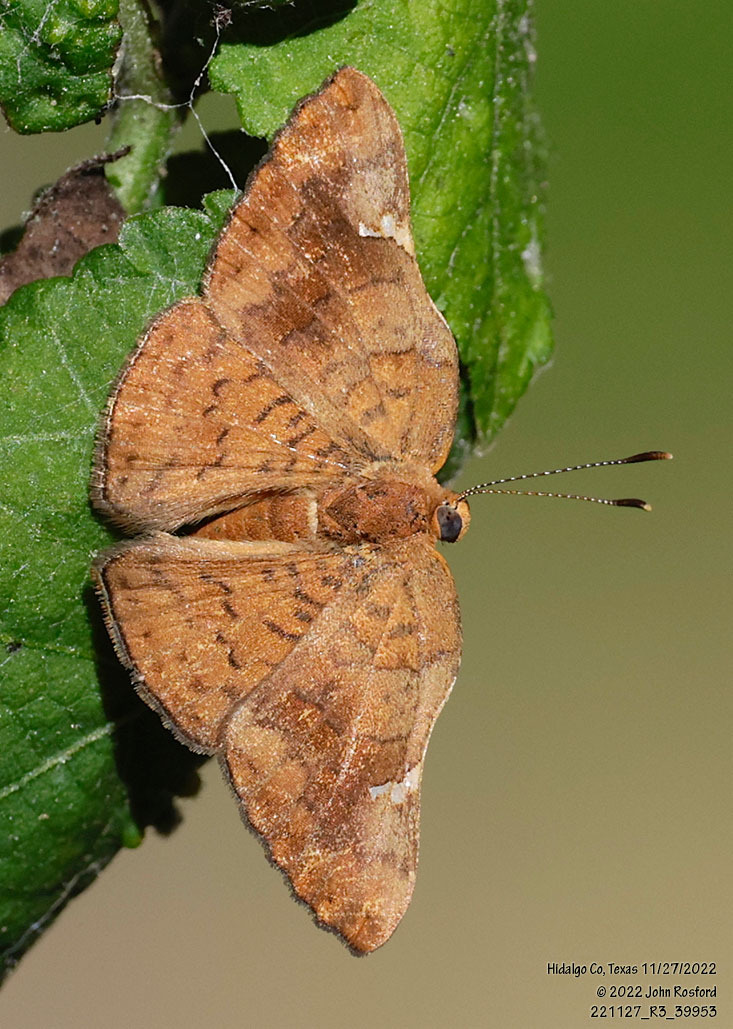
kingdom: Animalia
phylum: Arthropoda
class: Insecta
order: Lepidoptera
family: Riodinidae
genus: Curvie
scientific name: Curvie emesia
